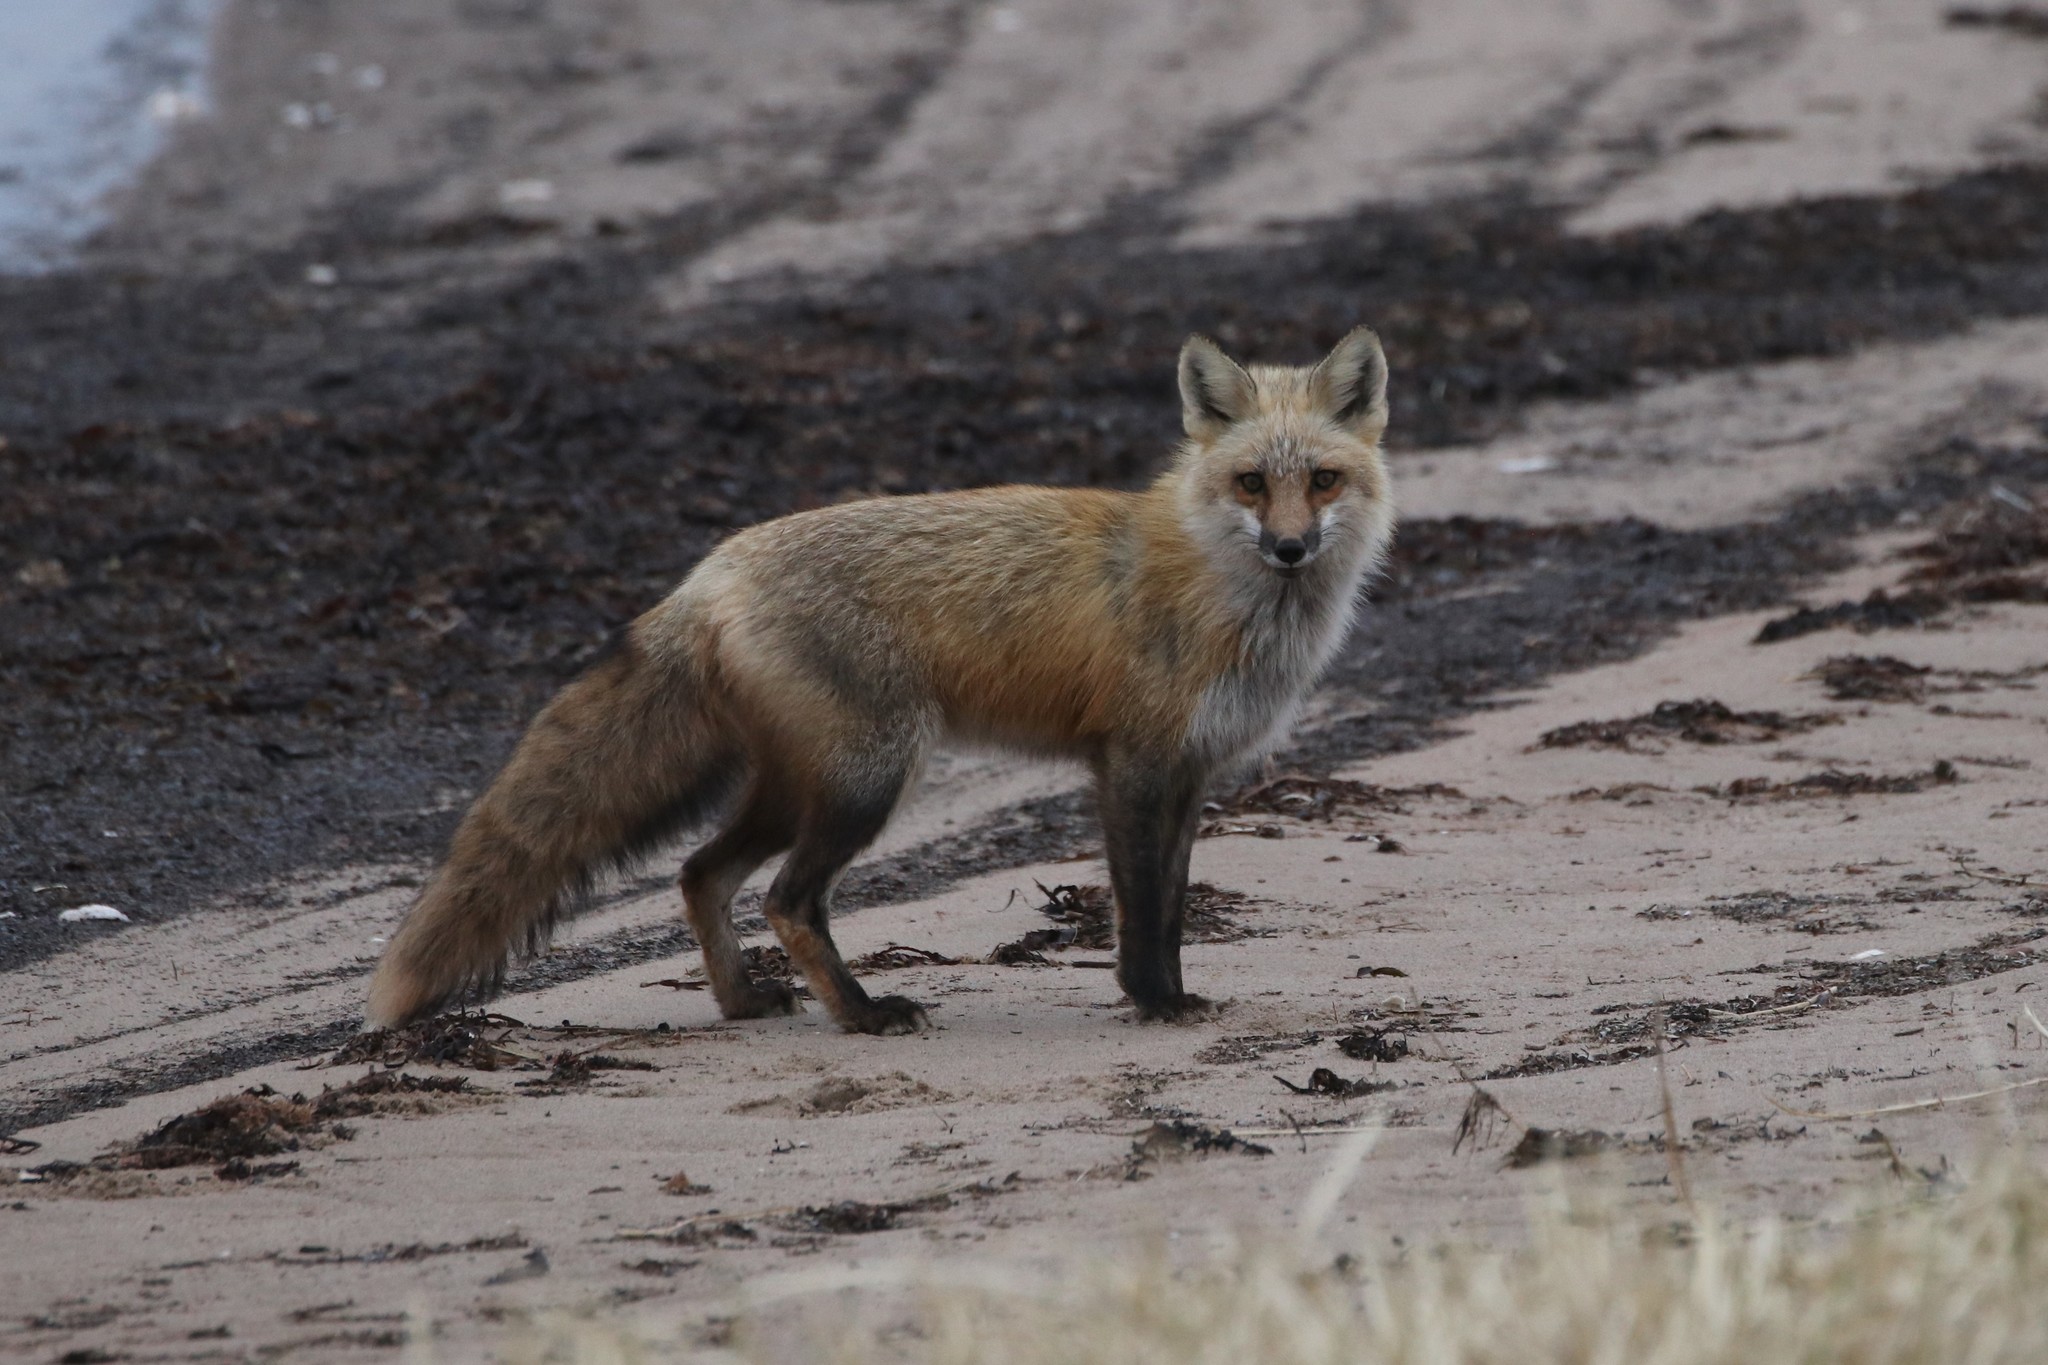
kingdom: Animalia
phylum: Chordata
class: Mammalia
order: Carnivora
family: Canidae
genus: Vulpes
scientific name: Vulpes vulpes
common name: Red fox
